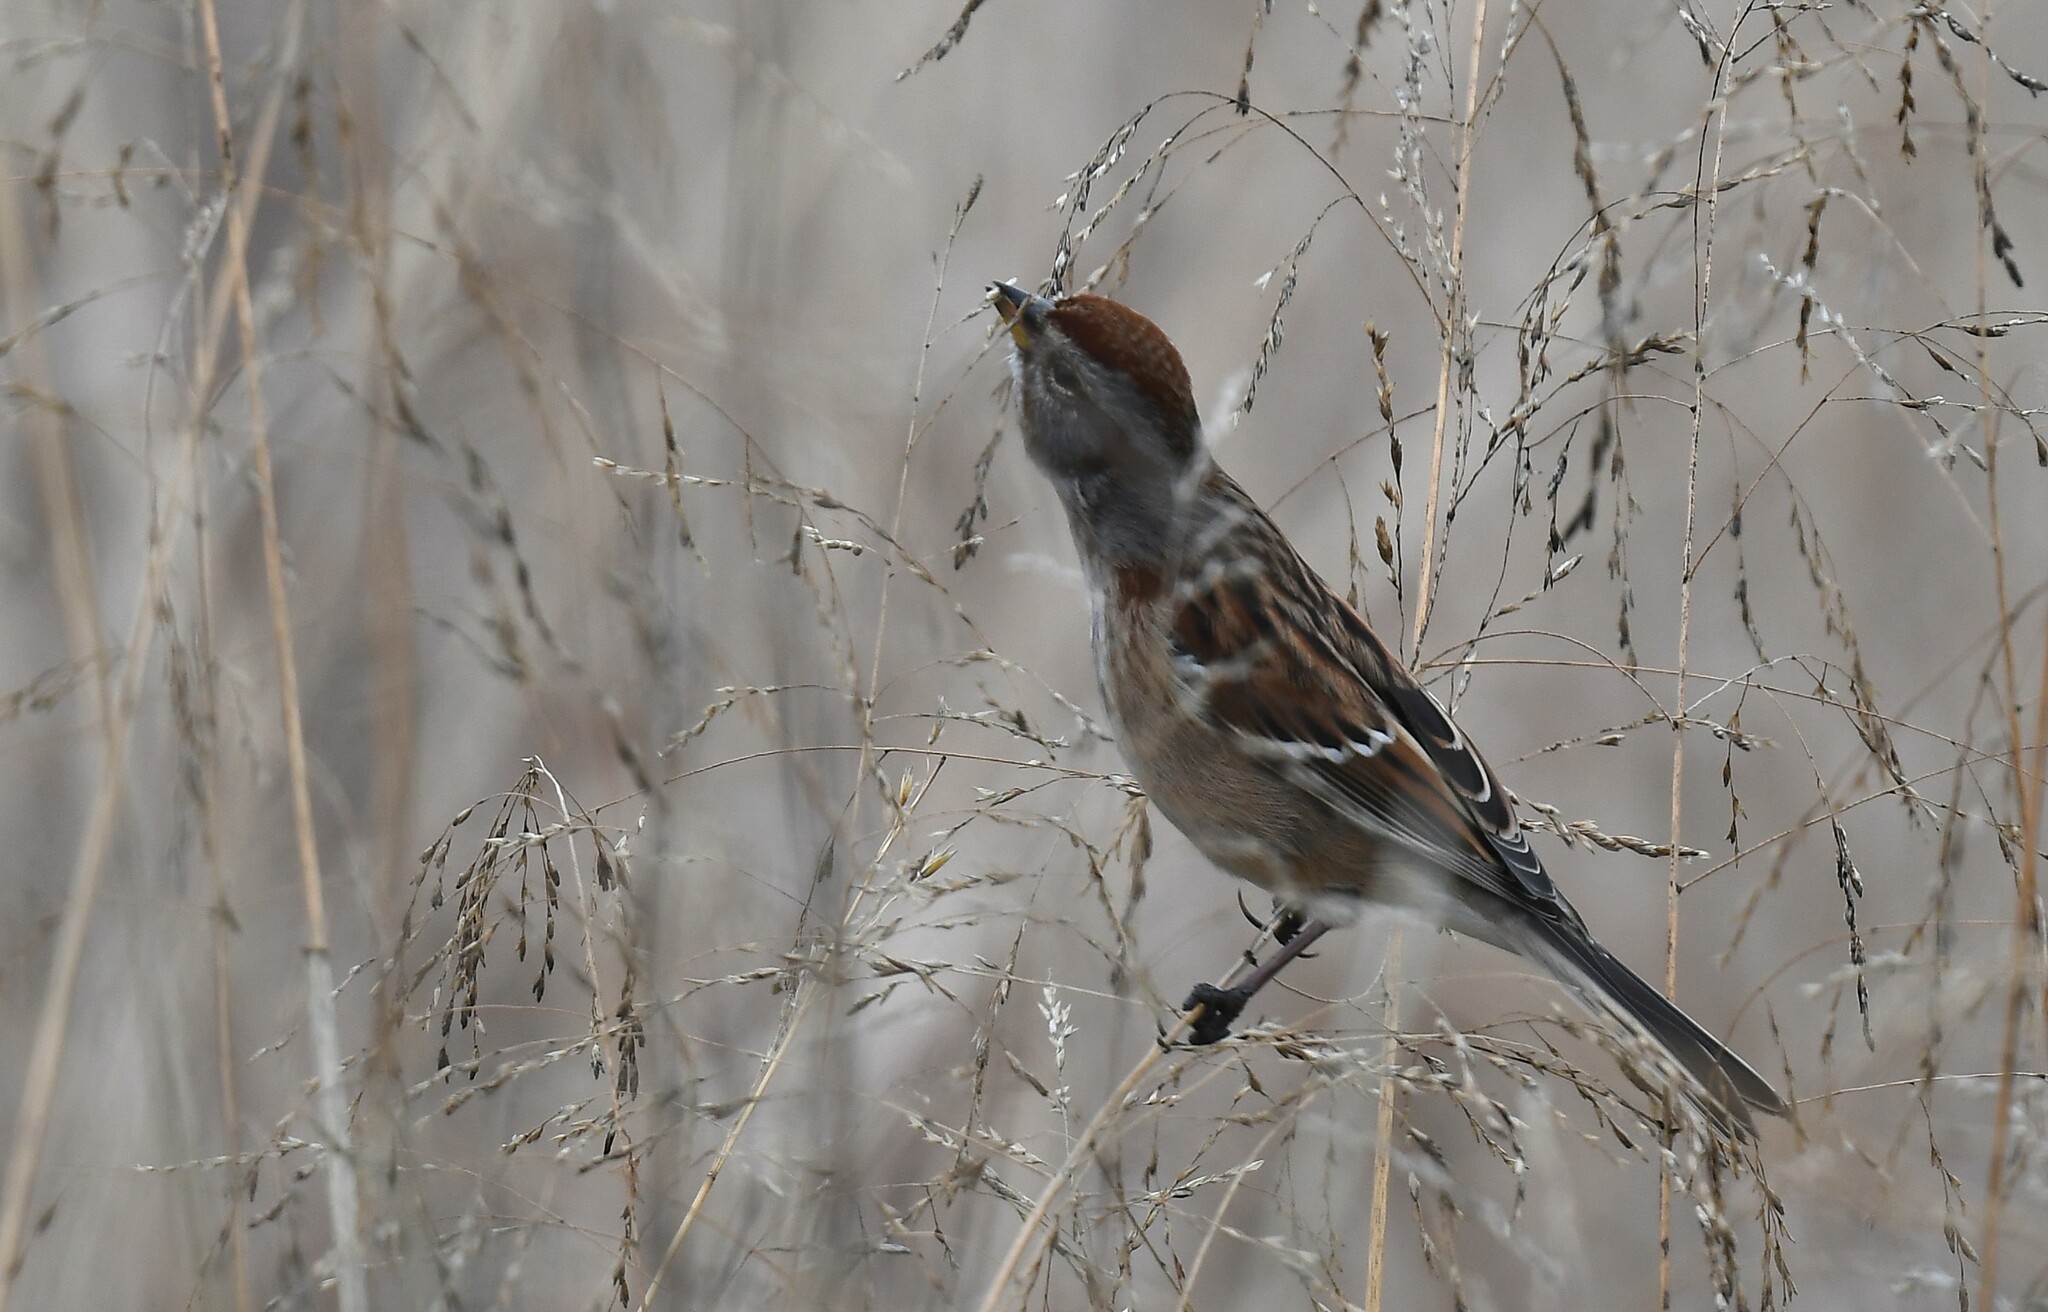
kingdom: Animalia
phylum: Chordata
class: Aves
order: Passeriformes
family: Passerellidae
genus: Spizelloides
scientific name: Spizelloides arborea
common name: American tree sparrow
